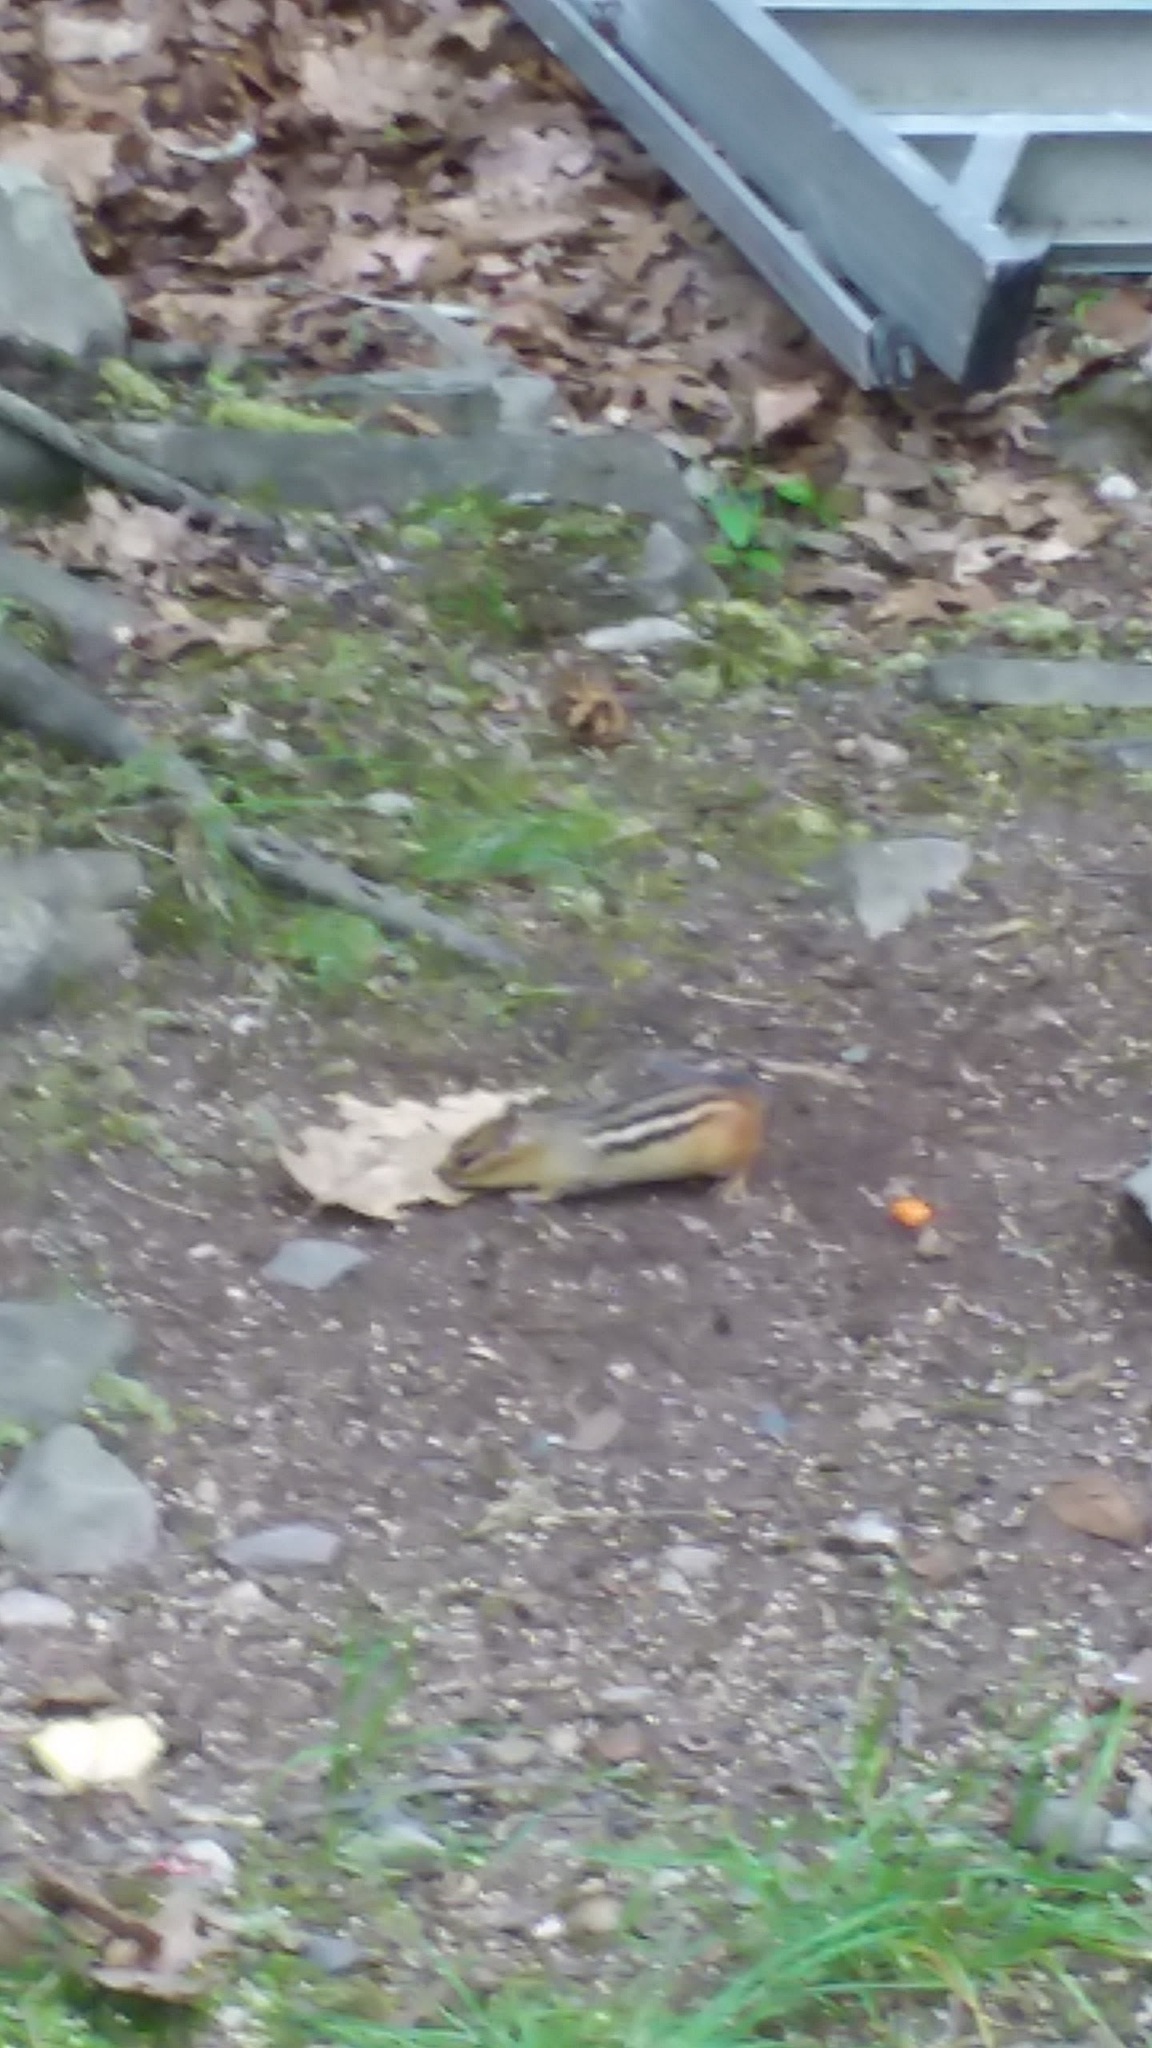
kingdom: Animalia
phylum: Chordata
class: Mammalia
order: Rodentia
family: Sciuridae
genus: Tamias
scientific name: Tamias striatus
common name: Eastern chipmunk
